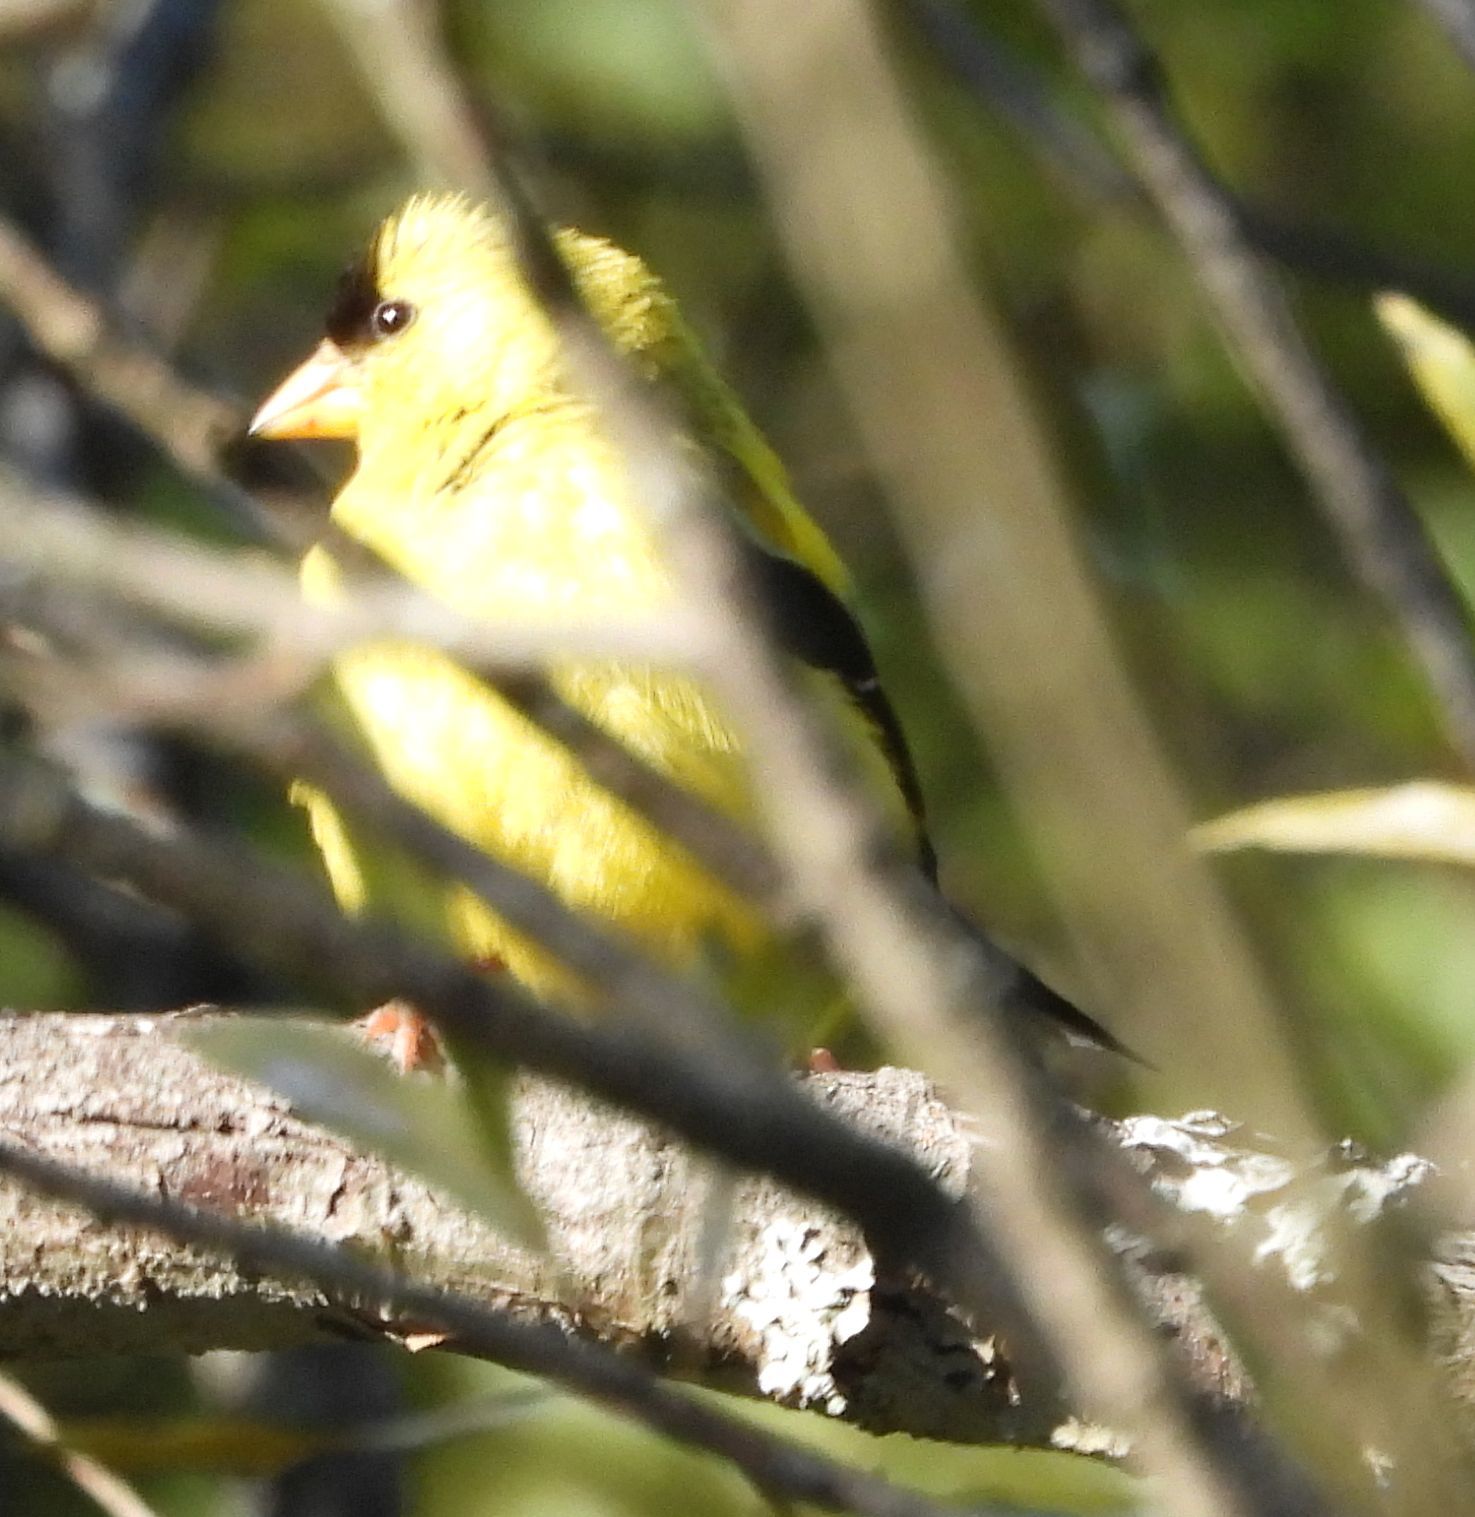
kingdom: Animalia
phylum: Chordata
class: Aves
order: Passeriformes
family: Fringillidae
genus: Spinus
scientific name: Spinus tristis
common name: American goldfinch
